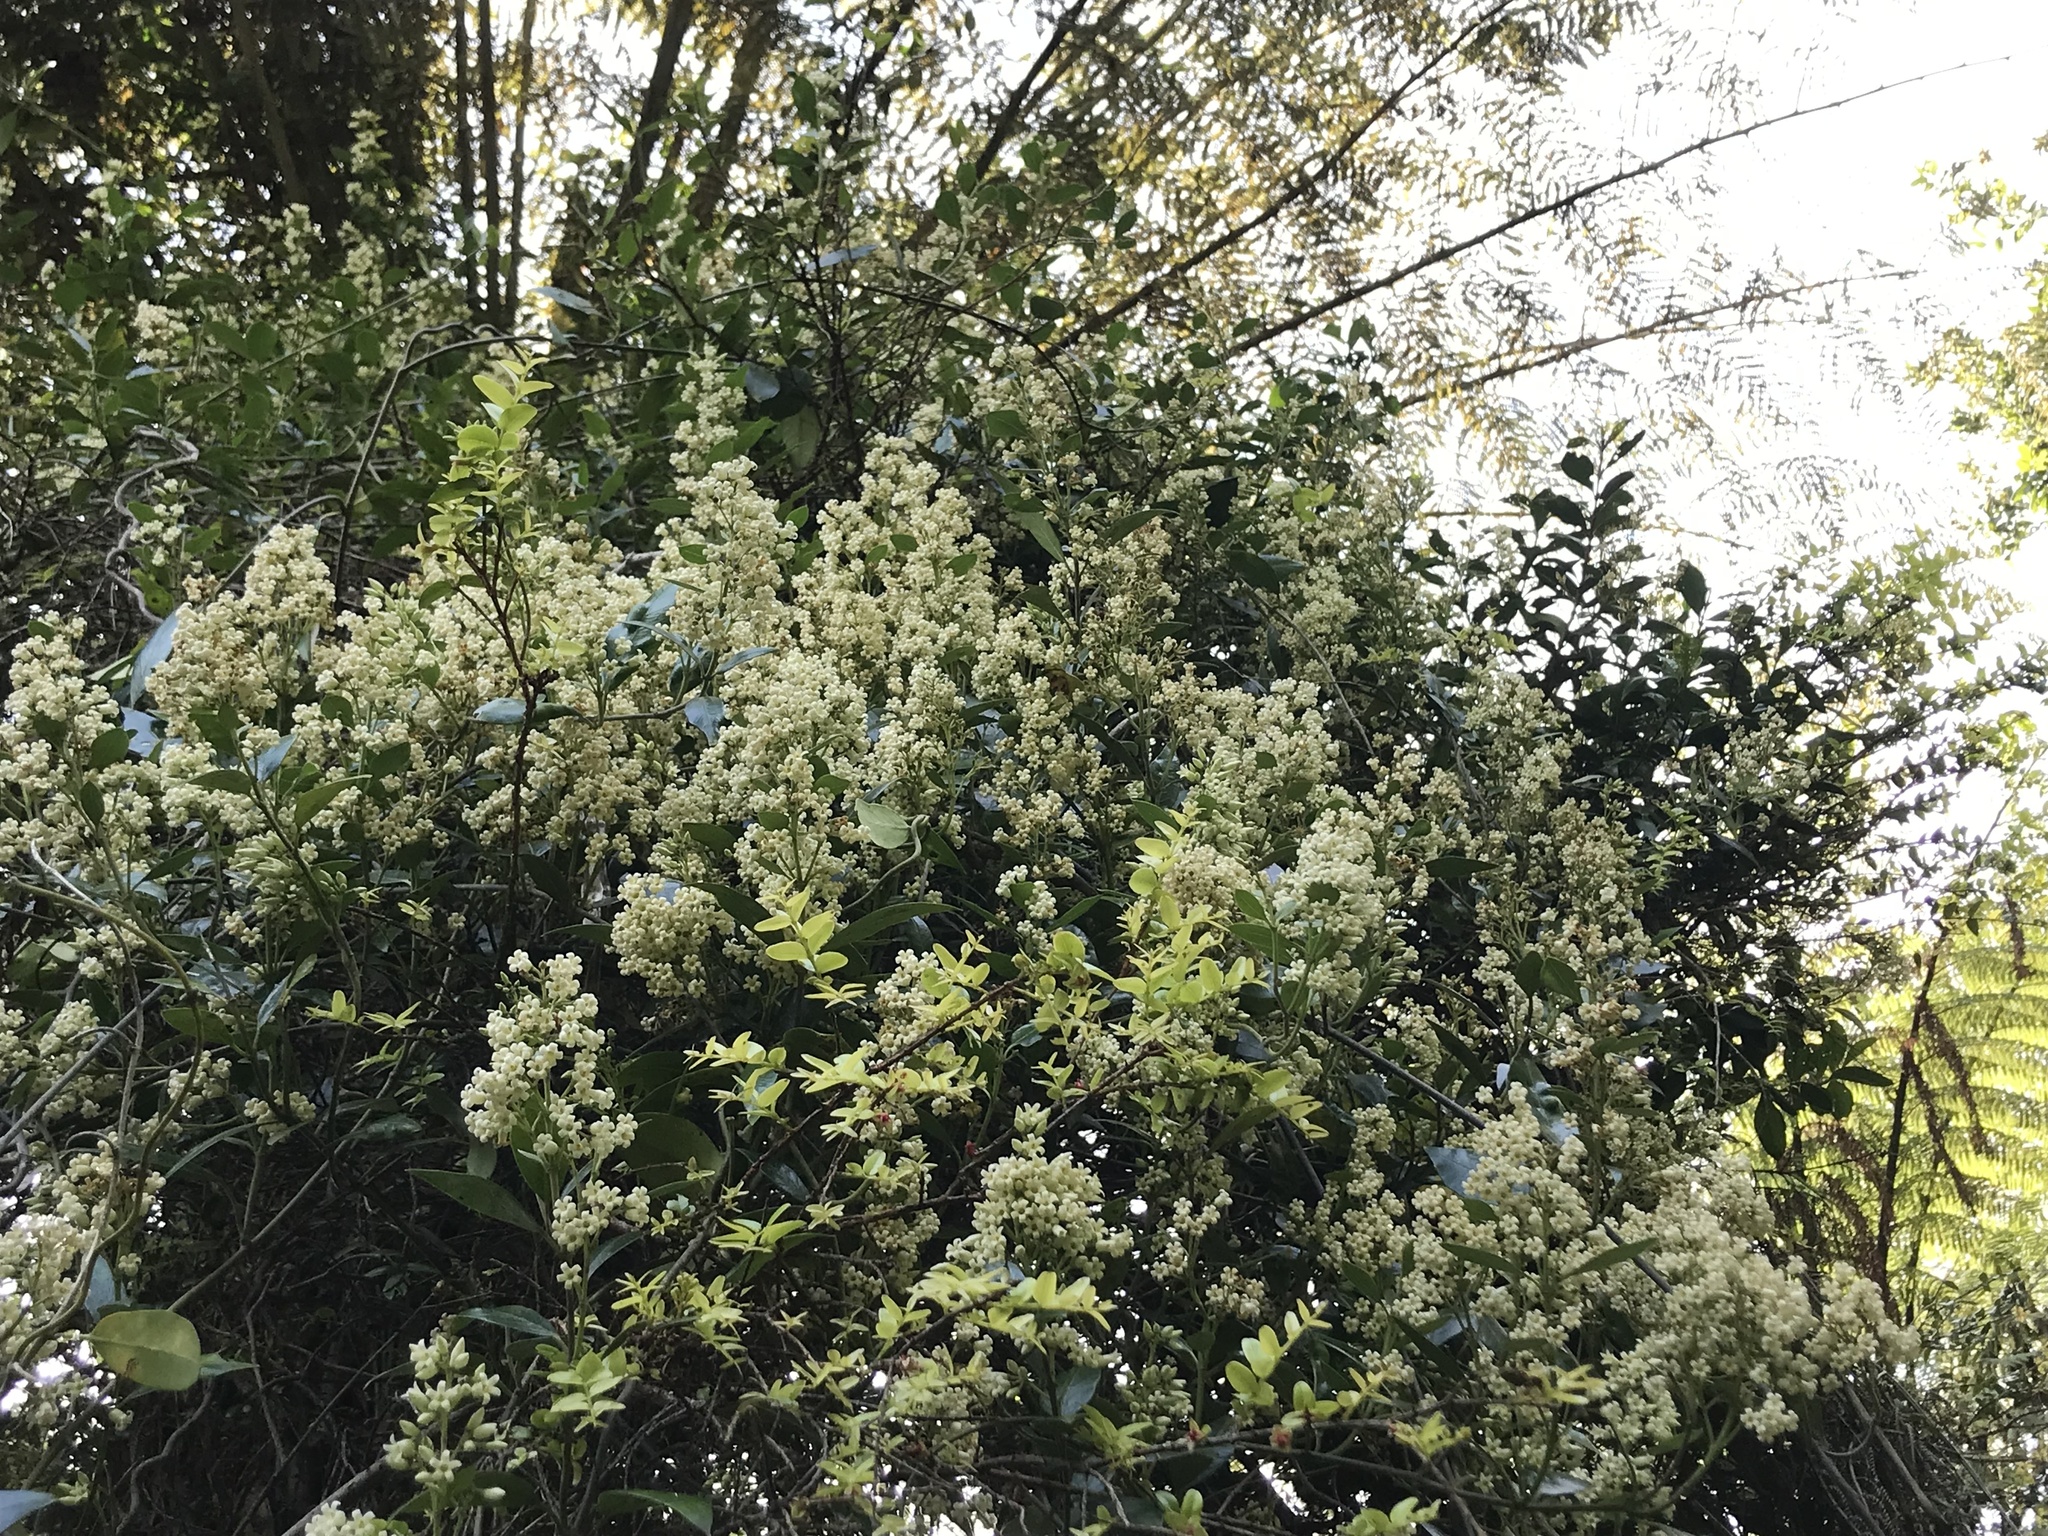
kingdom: Plantae
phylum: Tracheophyta
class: Magnoliopsida
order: Gentianales
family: Apocynaceae
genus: Parsonsia
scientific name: Parsonsia heterophylla
